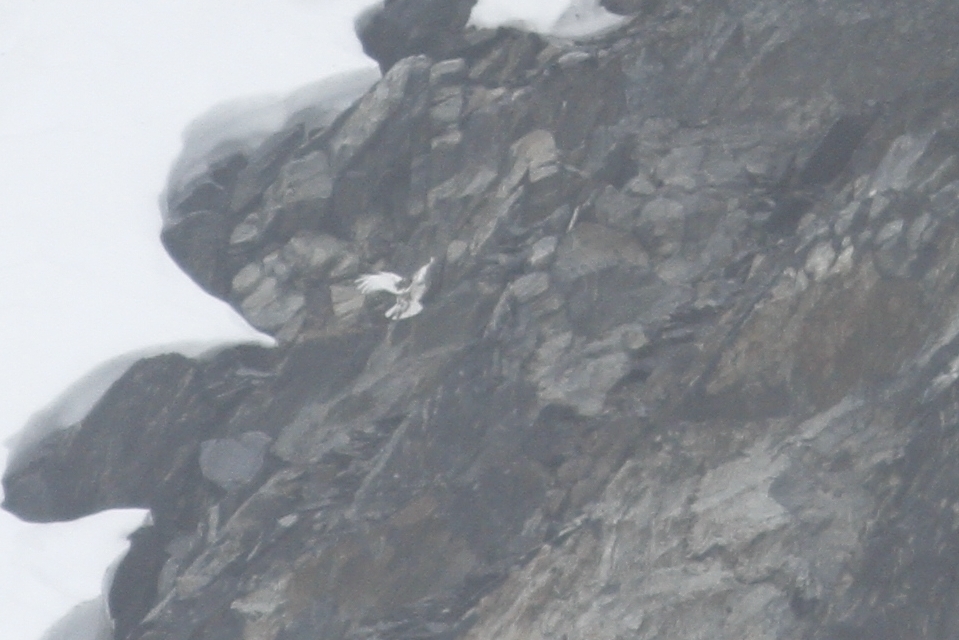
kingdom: Animalia
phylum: Chordata
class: Aves
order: Galliformes
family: Phasianidae
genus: Lagopus
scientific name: Lagopus leucura
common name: White-tailed ptarmigan
